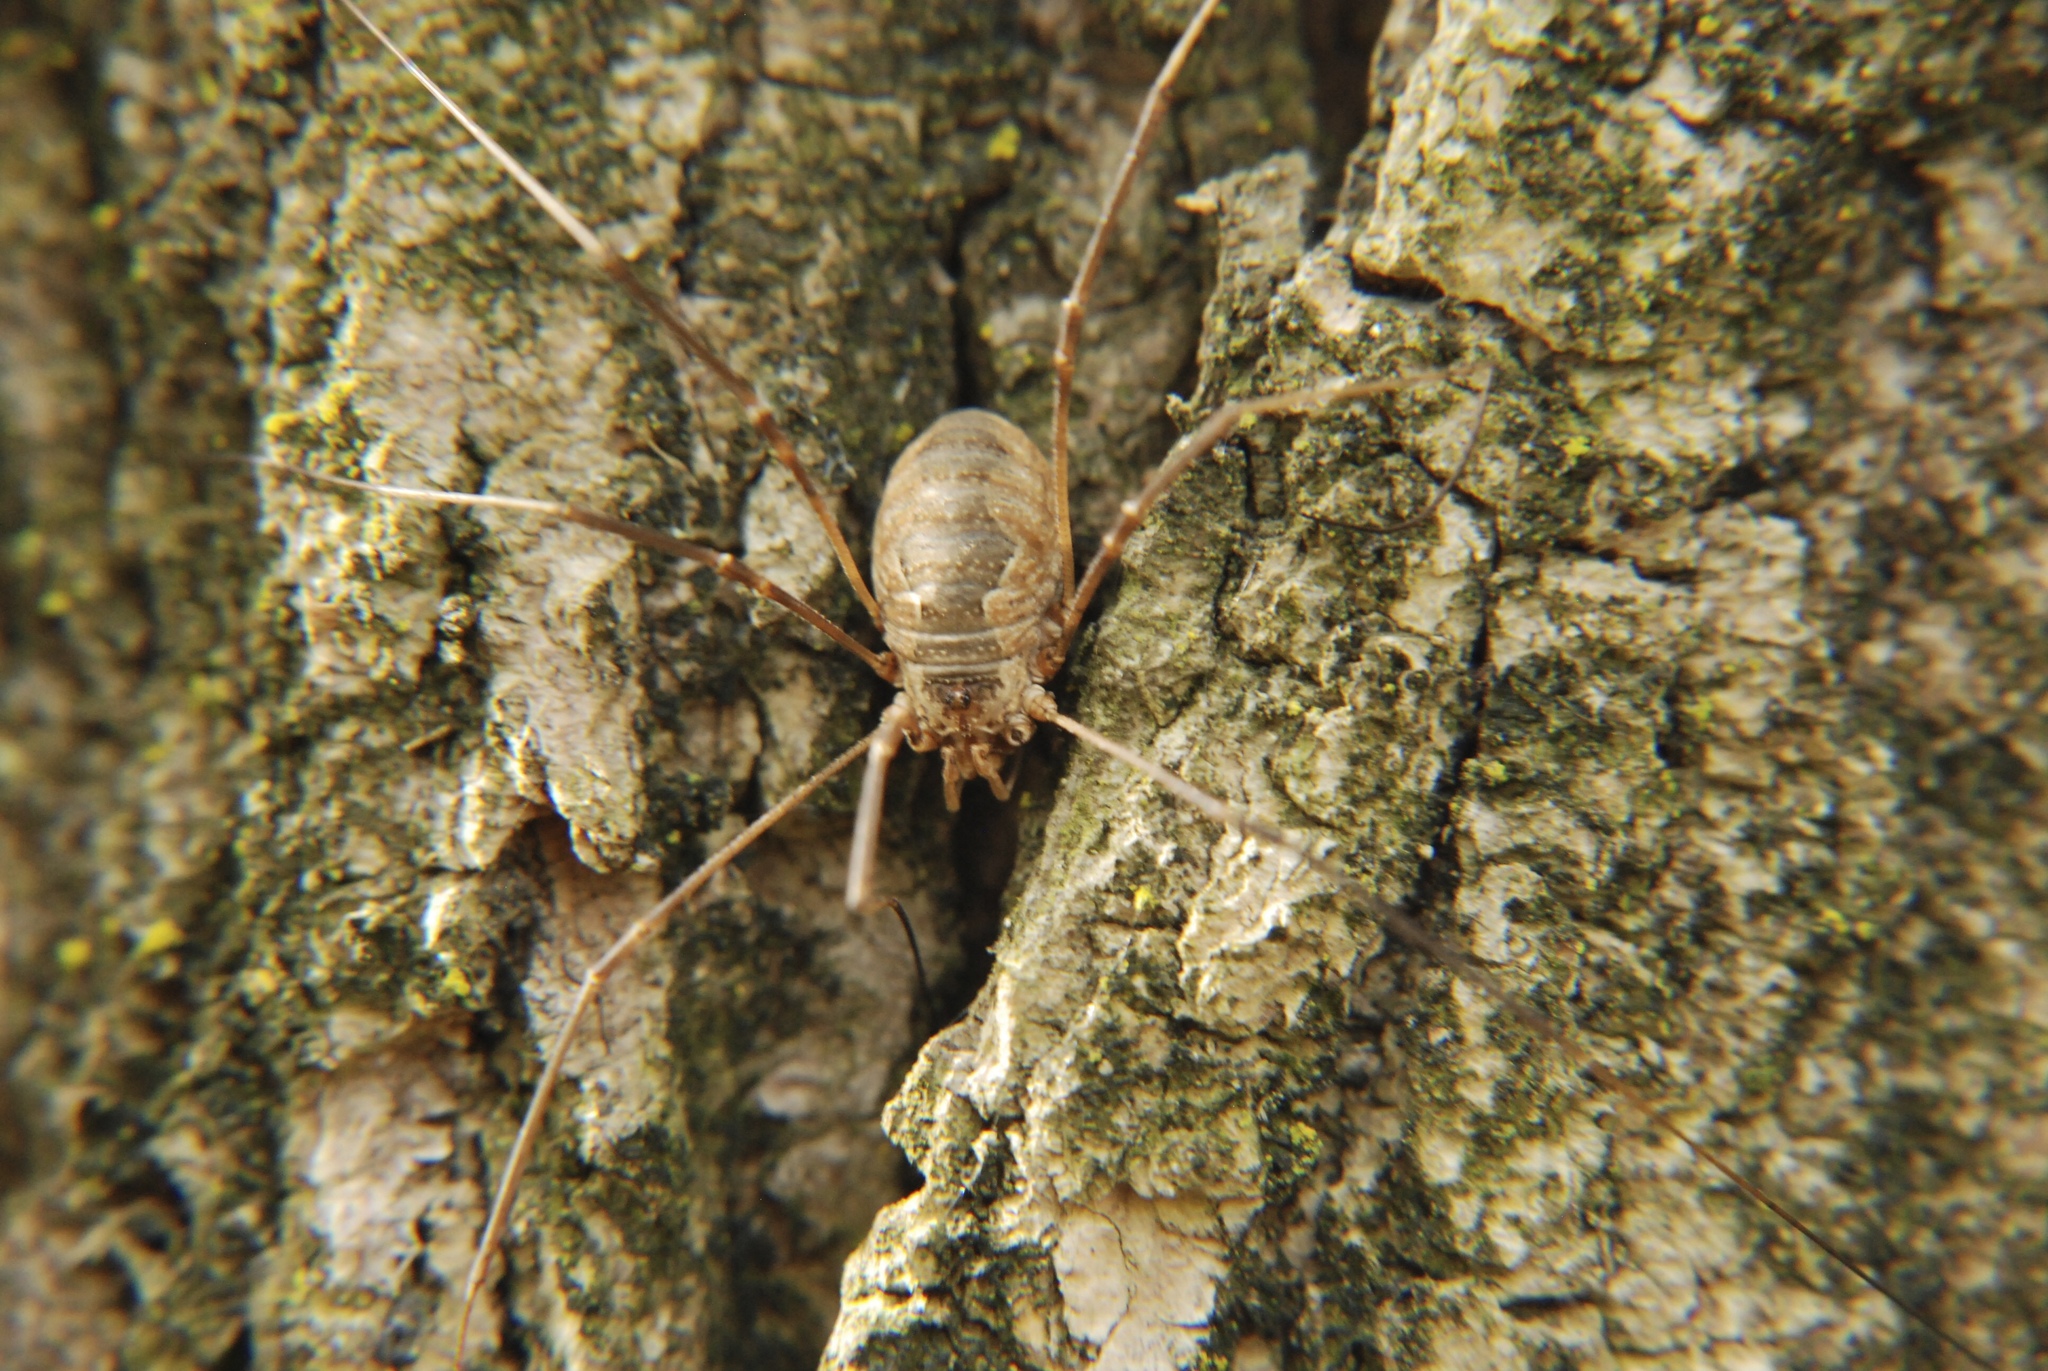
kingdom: Animalia
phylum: Arthropoda
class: Arachnida
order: Opiliones
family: Phalangiidae
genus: Phalangium
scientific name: Phalangium opilio
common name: Daddy longleg
